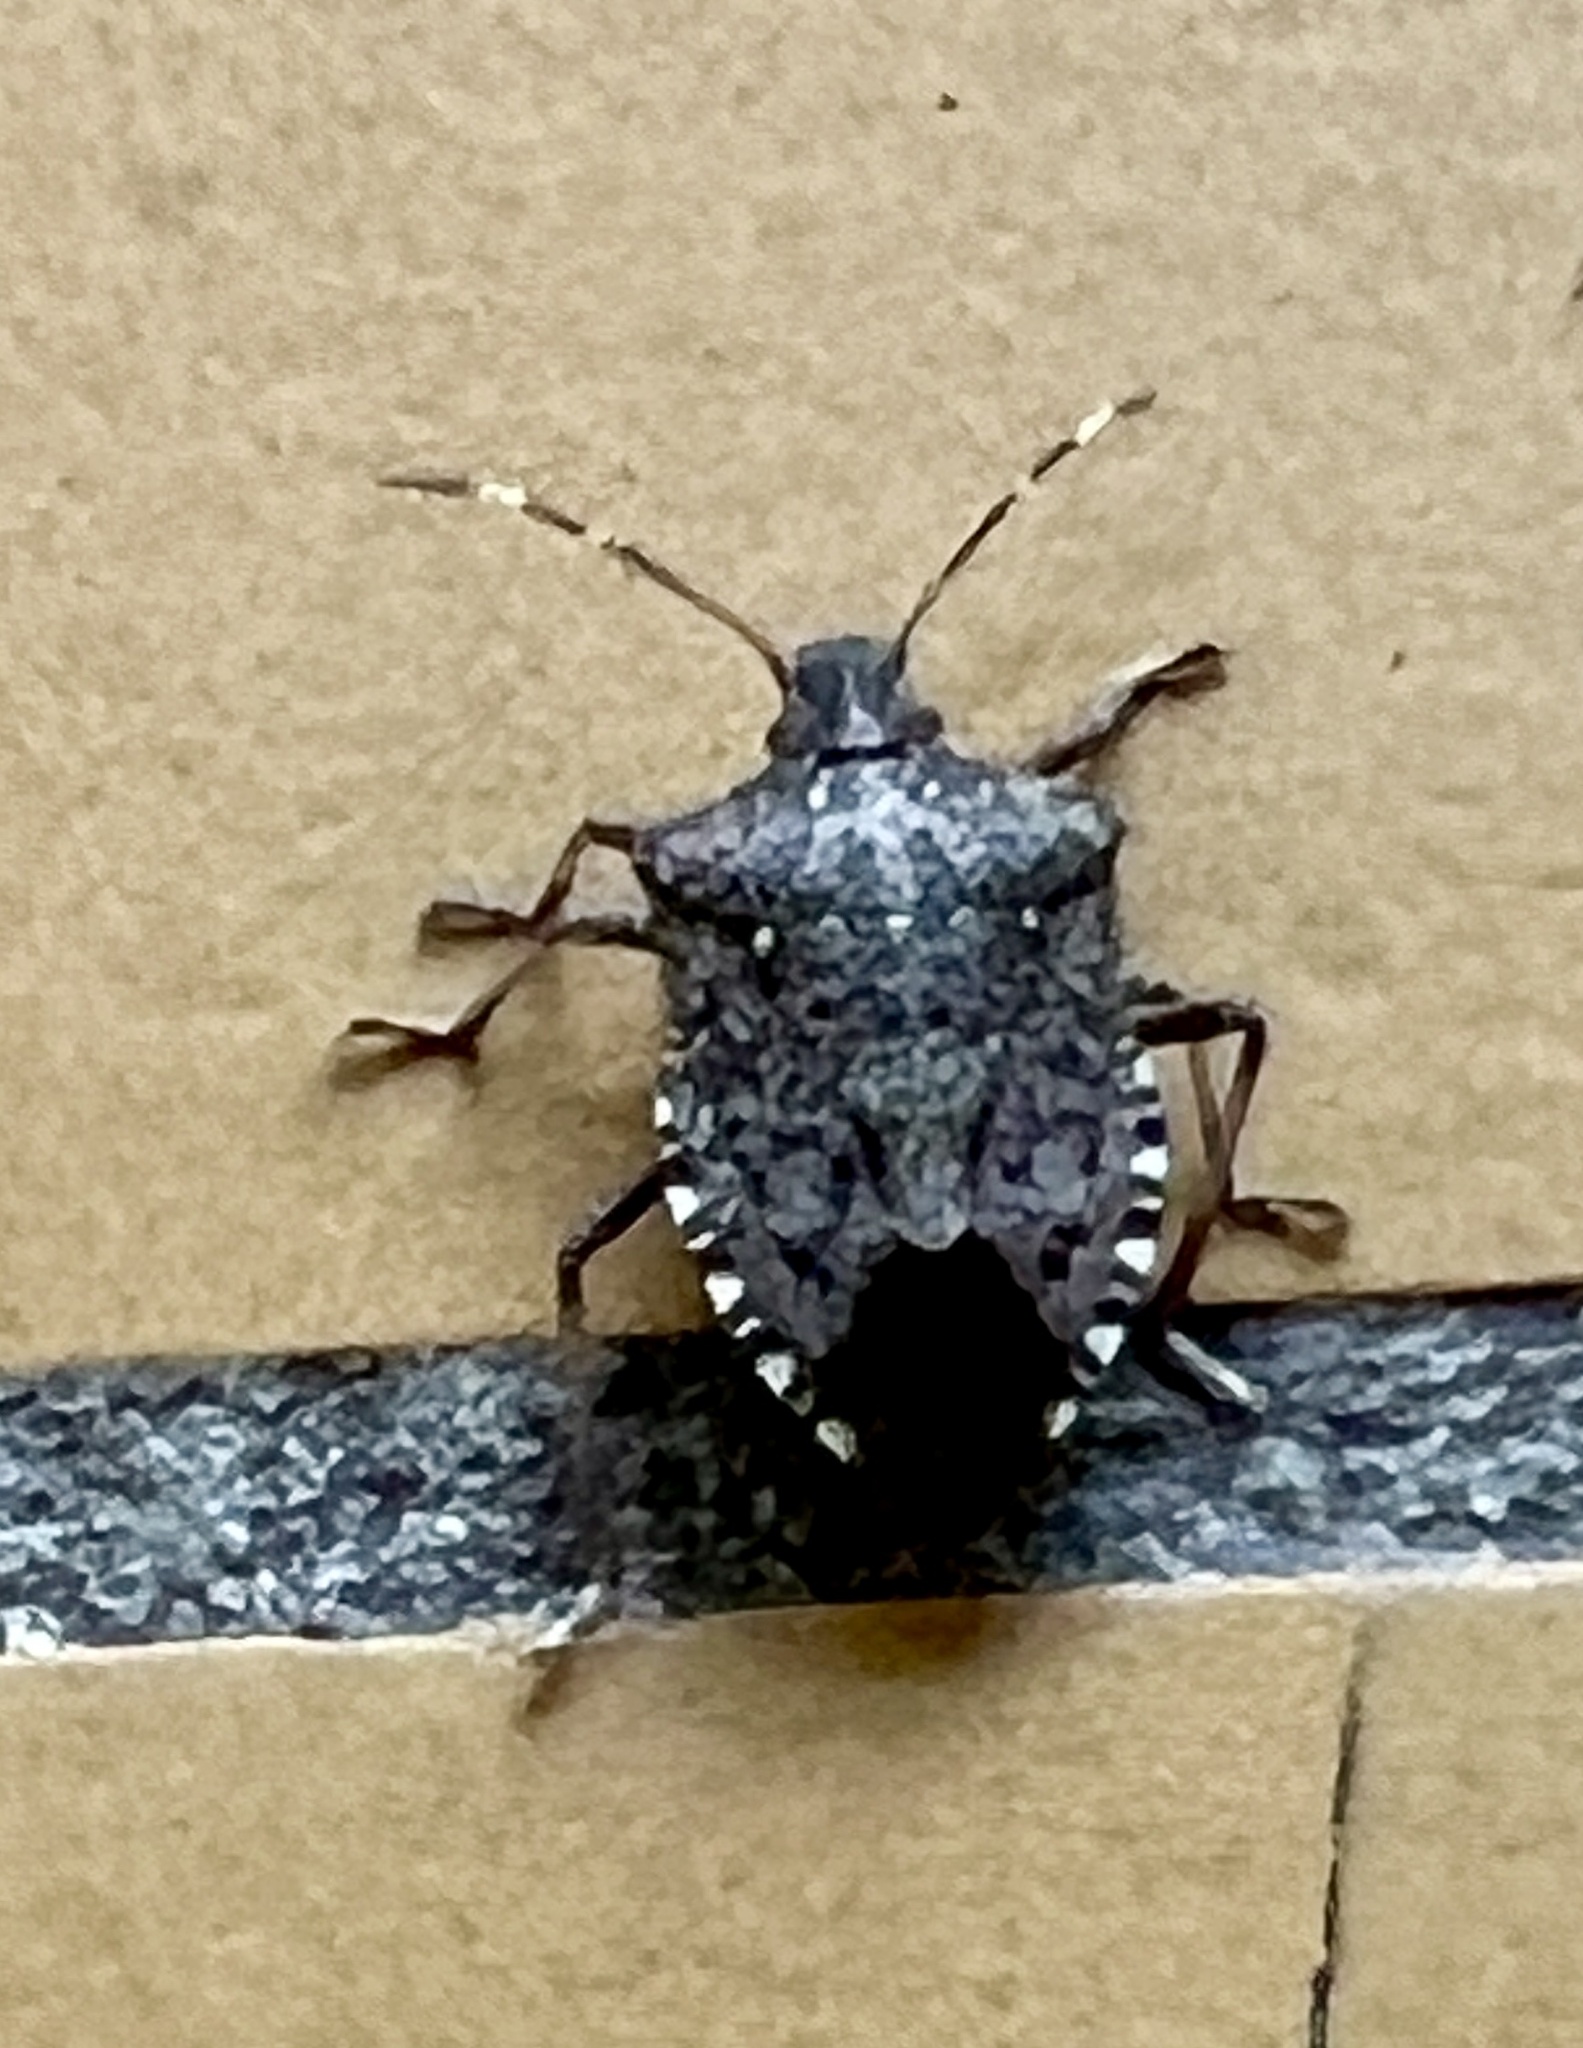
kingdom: Animalia
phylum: Arthropoda
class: Insecta
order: Hemiptera
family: Pentatomidae
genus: Halyomorpha
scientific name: Halyomorpha halys
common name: Brown marmorated stink bug
